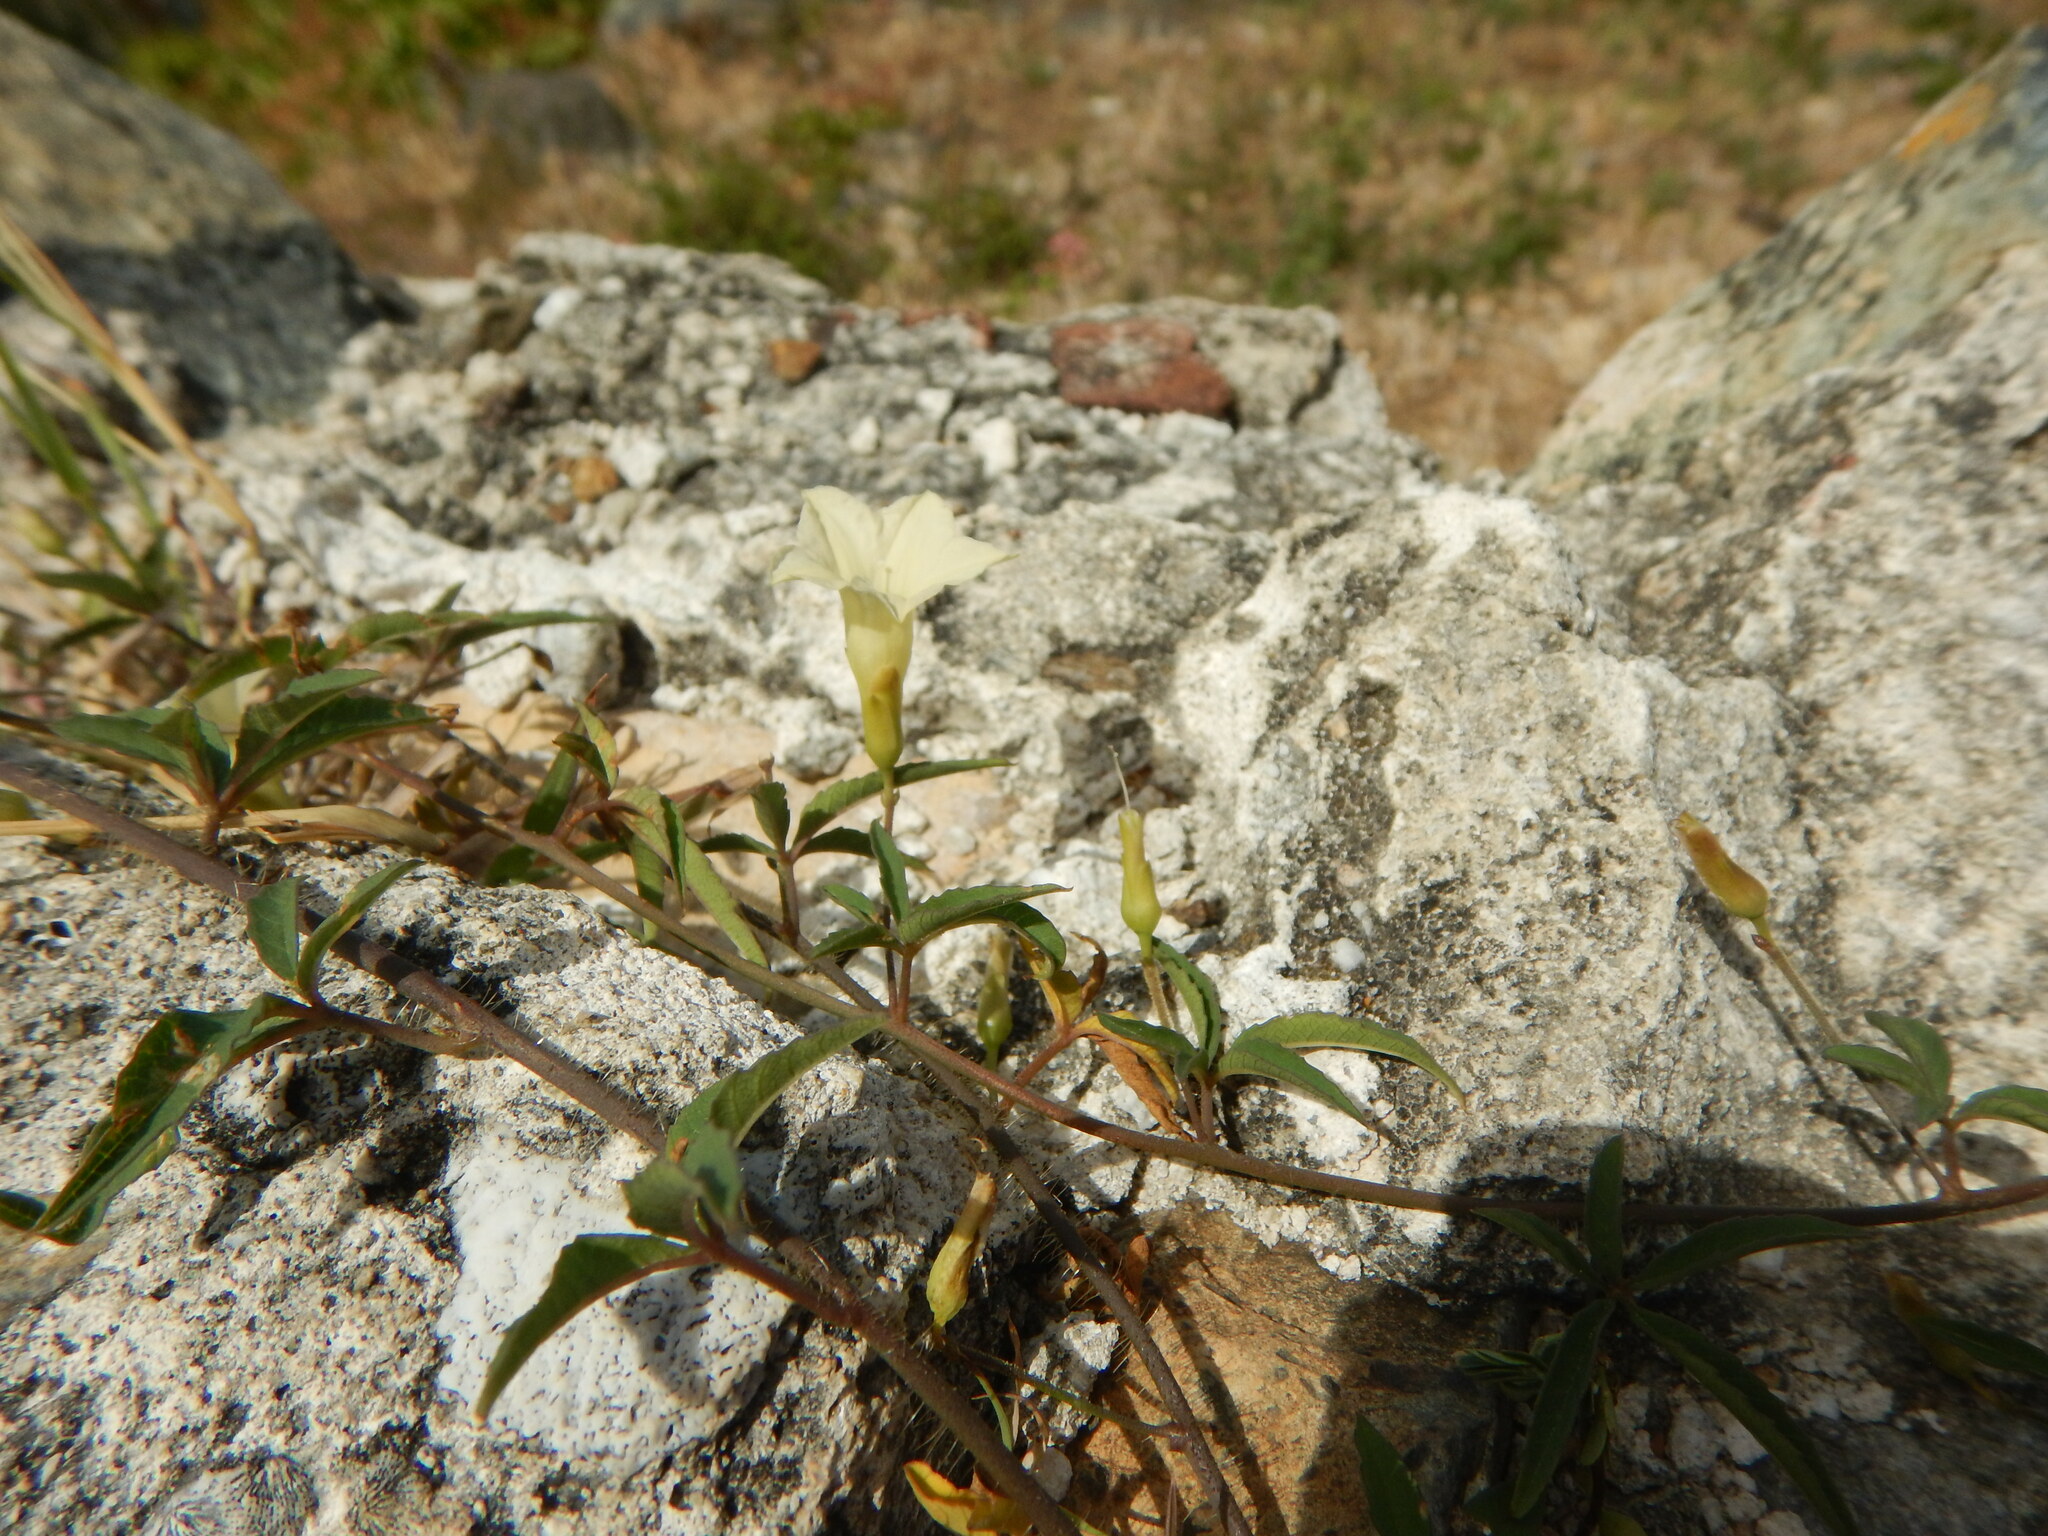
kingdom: Plantae
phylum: Tracheophyta
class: Magnoliopsida
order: Solanales
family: Convolvulaceae
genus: Distimake
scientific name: Distimake quinquefolius
